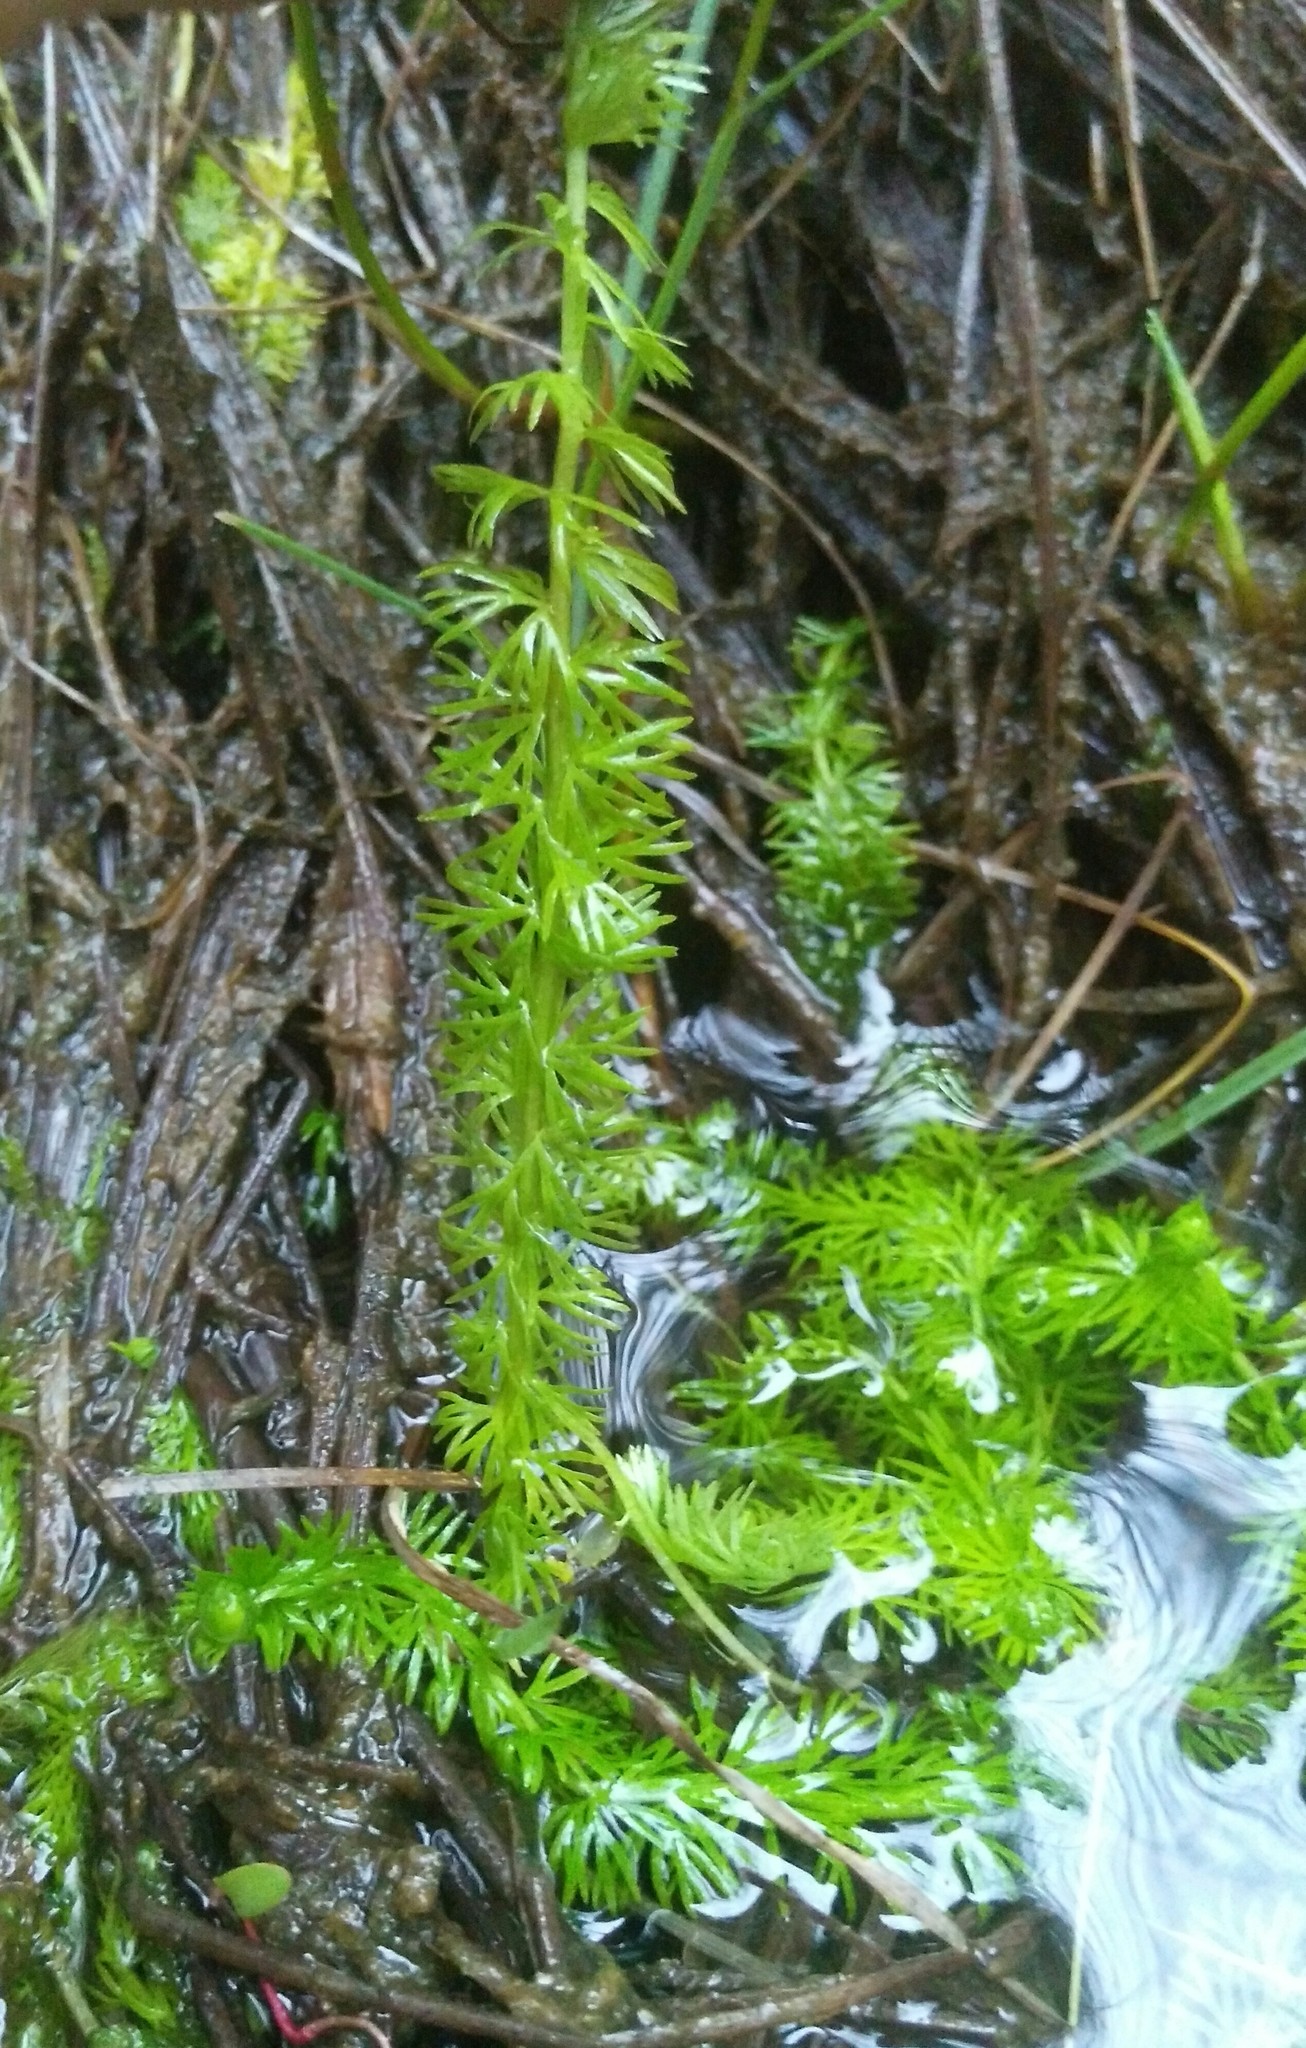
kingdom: Plantae
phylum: Tracheophyta
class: Magnoliopsida
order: Lamiales
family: Lentibulariaceae
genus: Utricularia
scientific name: Utricularia intermedia
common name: Intermediate bladderwort
